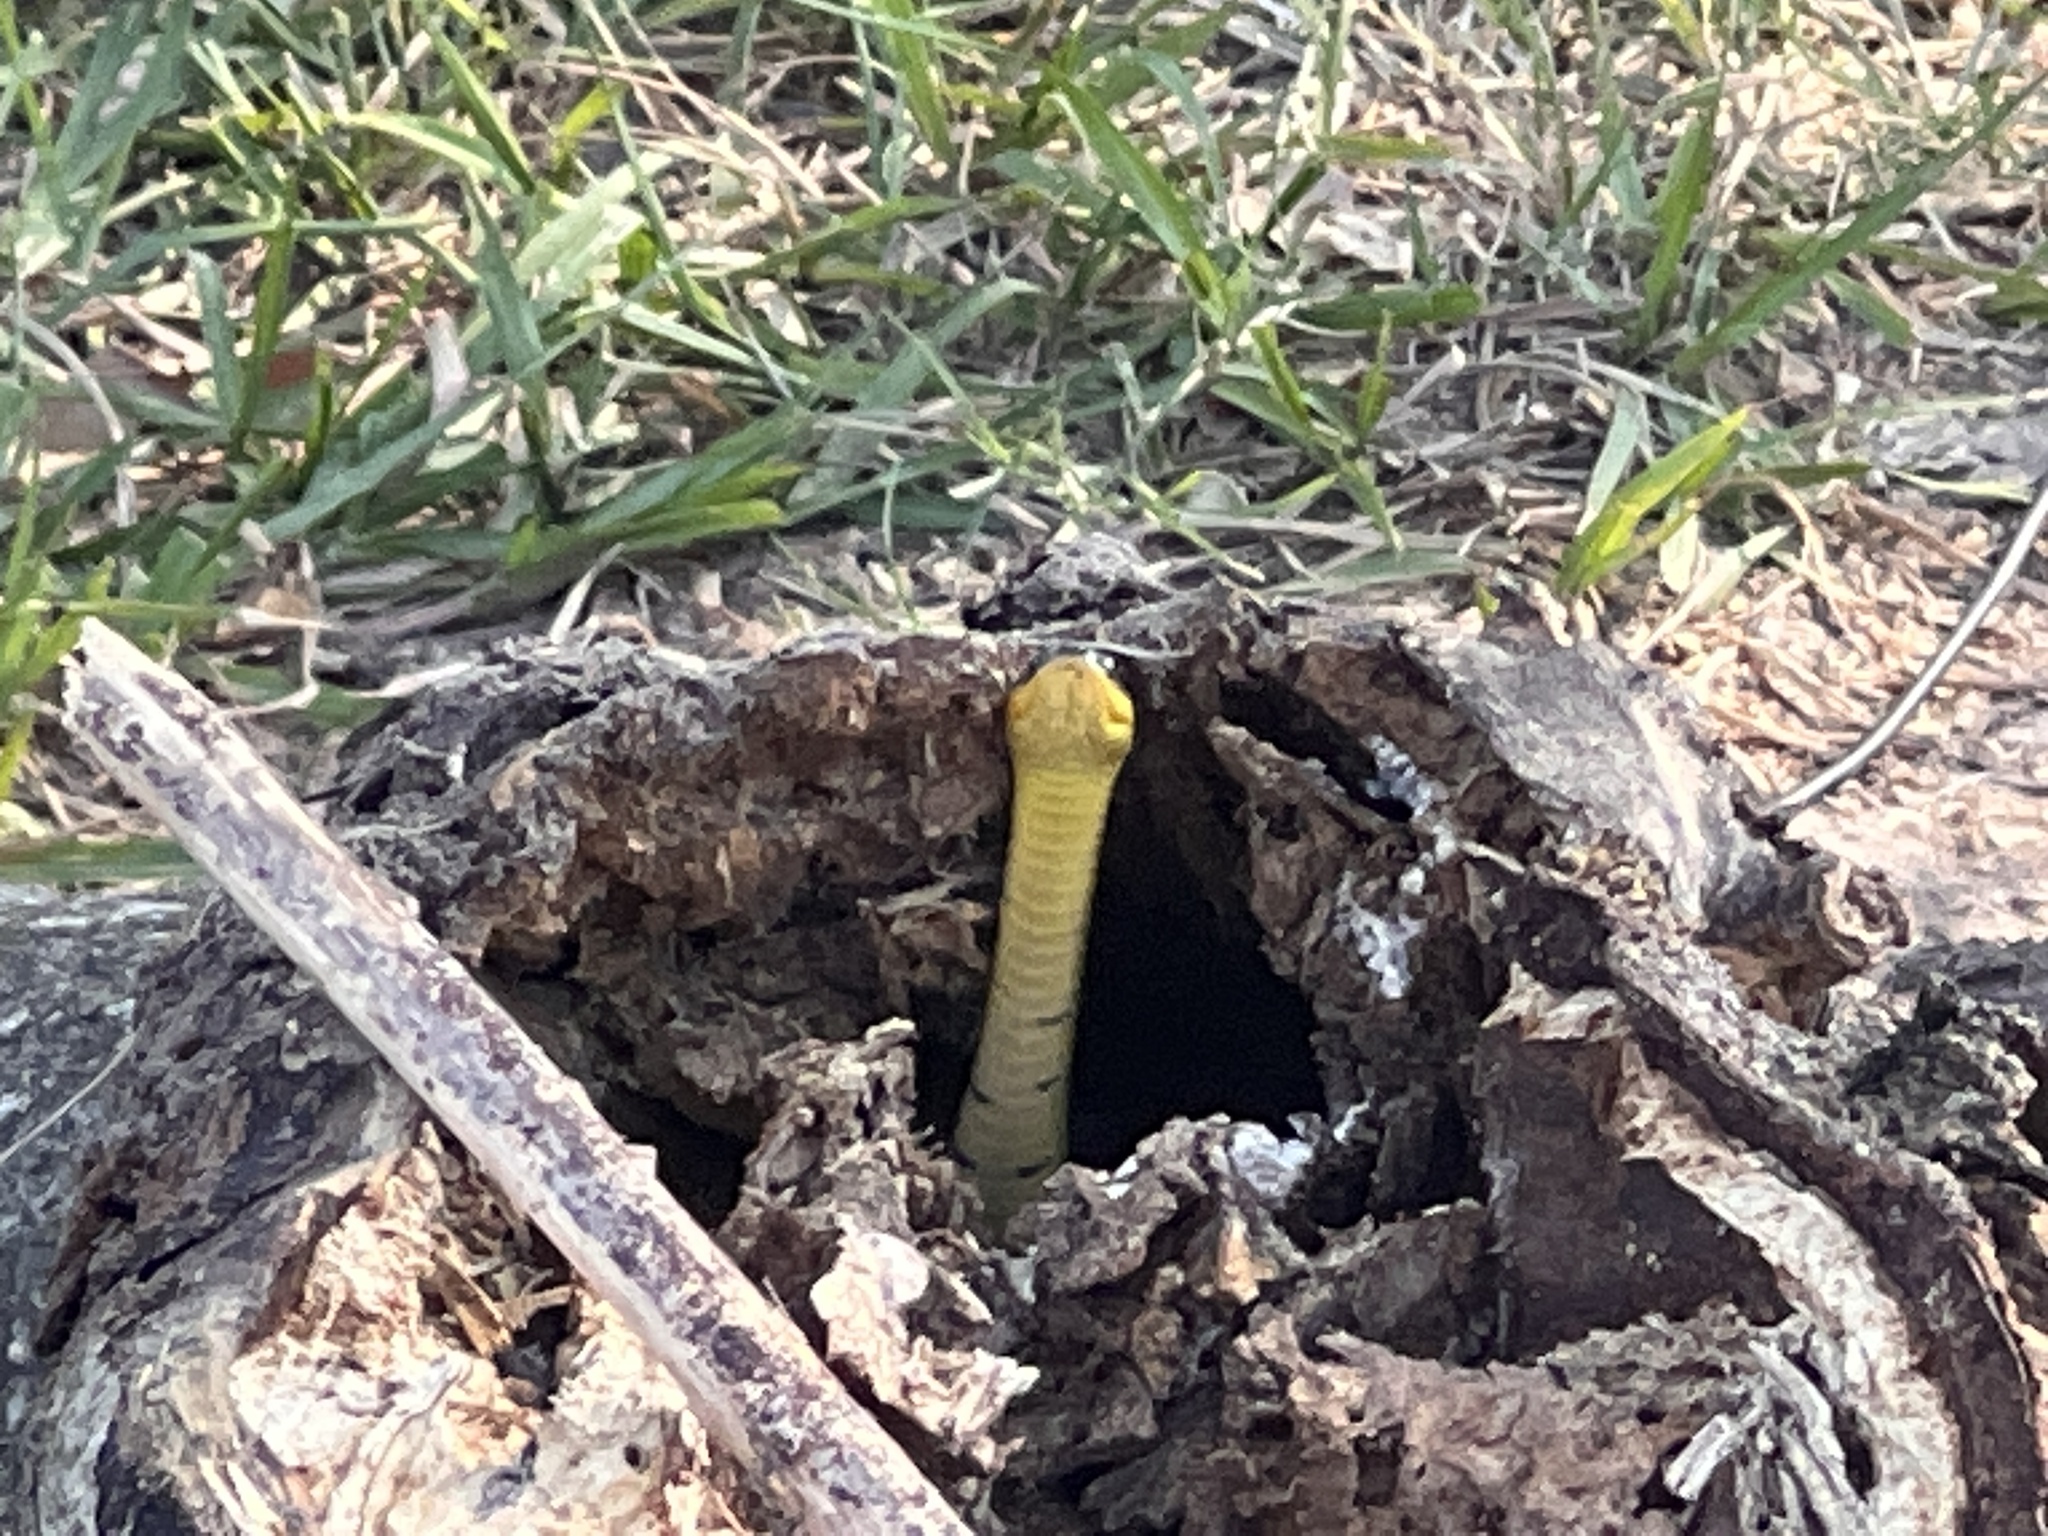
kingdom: Animalia
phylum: Chordata
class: Squamata
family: Colubridae
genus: Erythrolamprus
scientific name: Erythrolamprus poecilogyrus
